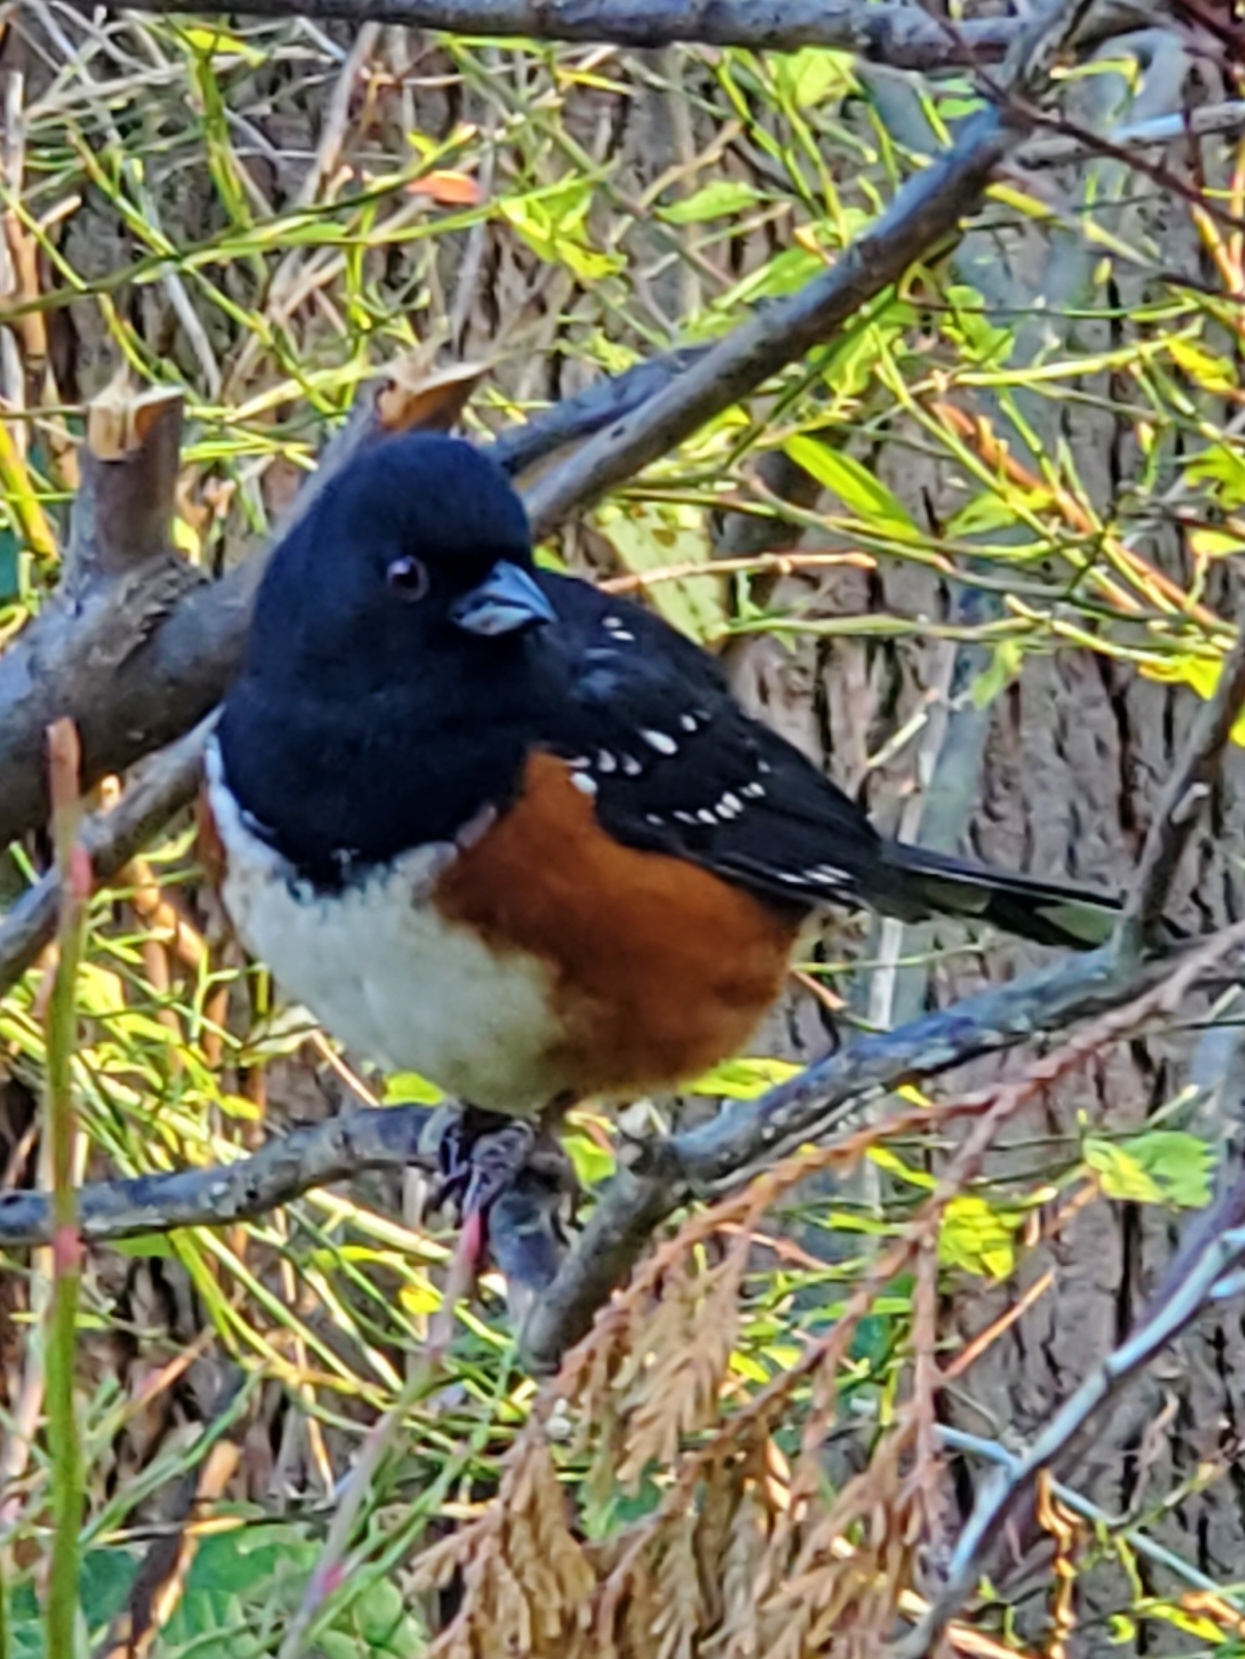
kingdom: Animalia
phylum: Chordata
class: Aves
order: Passeriformes
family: Passerellidae
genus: Pipilo
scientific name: Pipilo maculatus
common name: Spotted towhee
